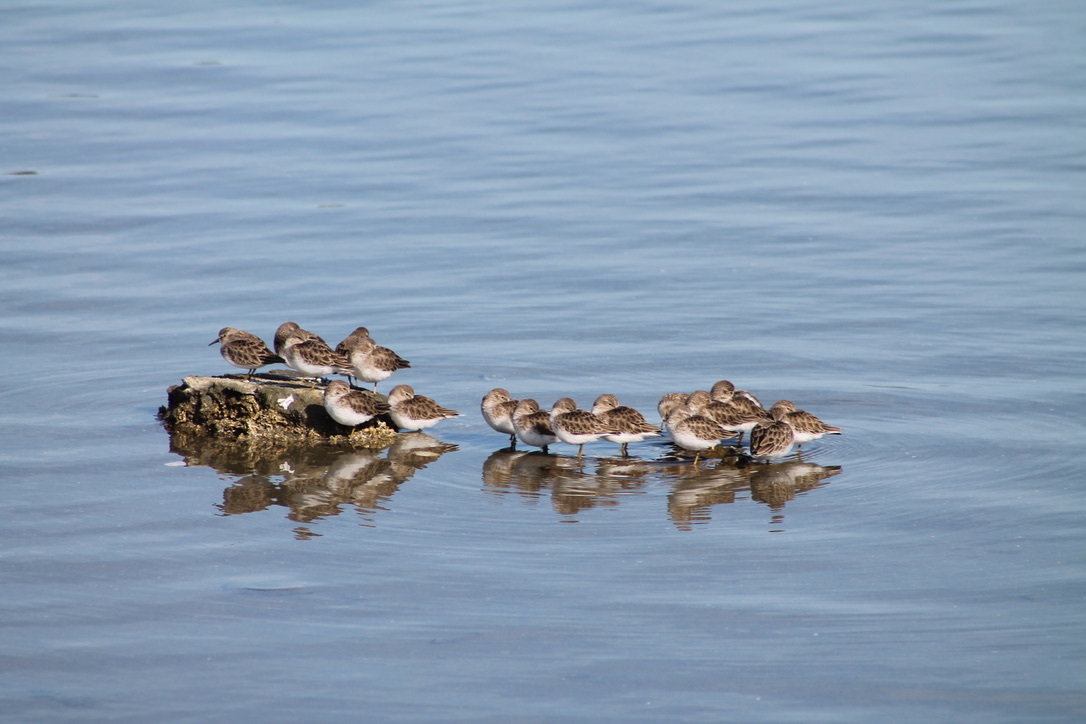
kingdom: Animalia
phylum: Chordata
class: Aves
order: Charadriiformes
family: Scolopacidae
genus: Calidris
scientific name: Calidris minutilla
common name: Least sandpiper
